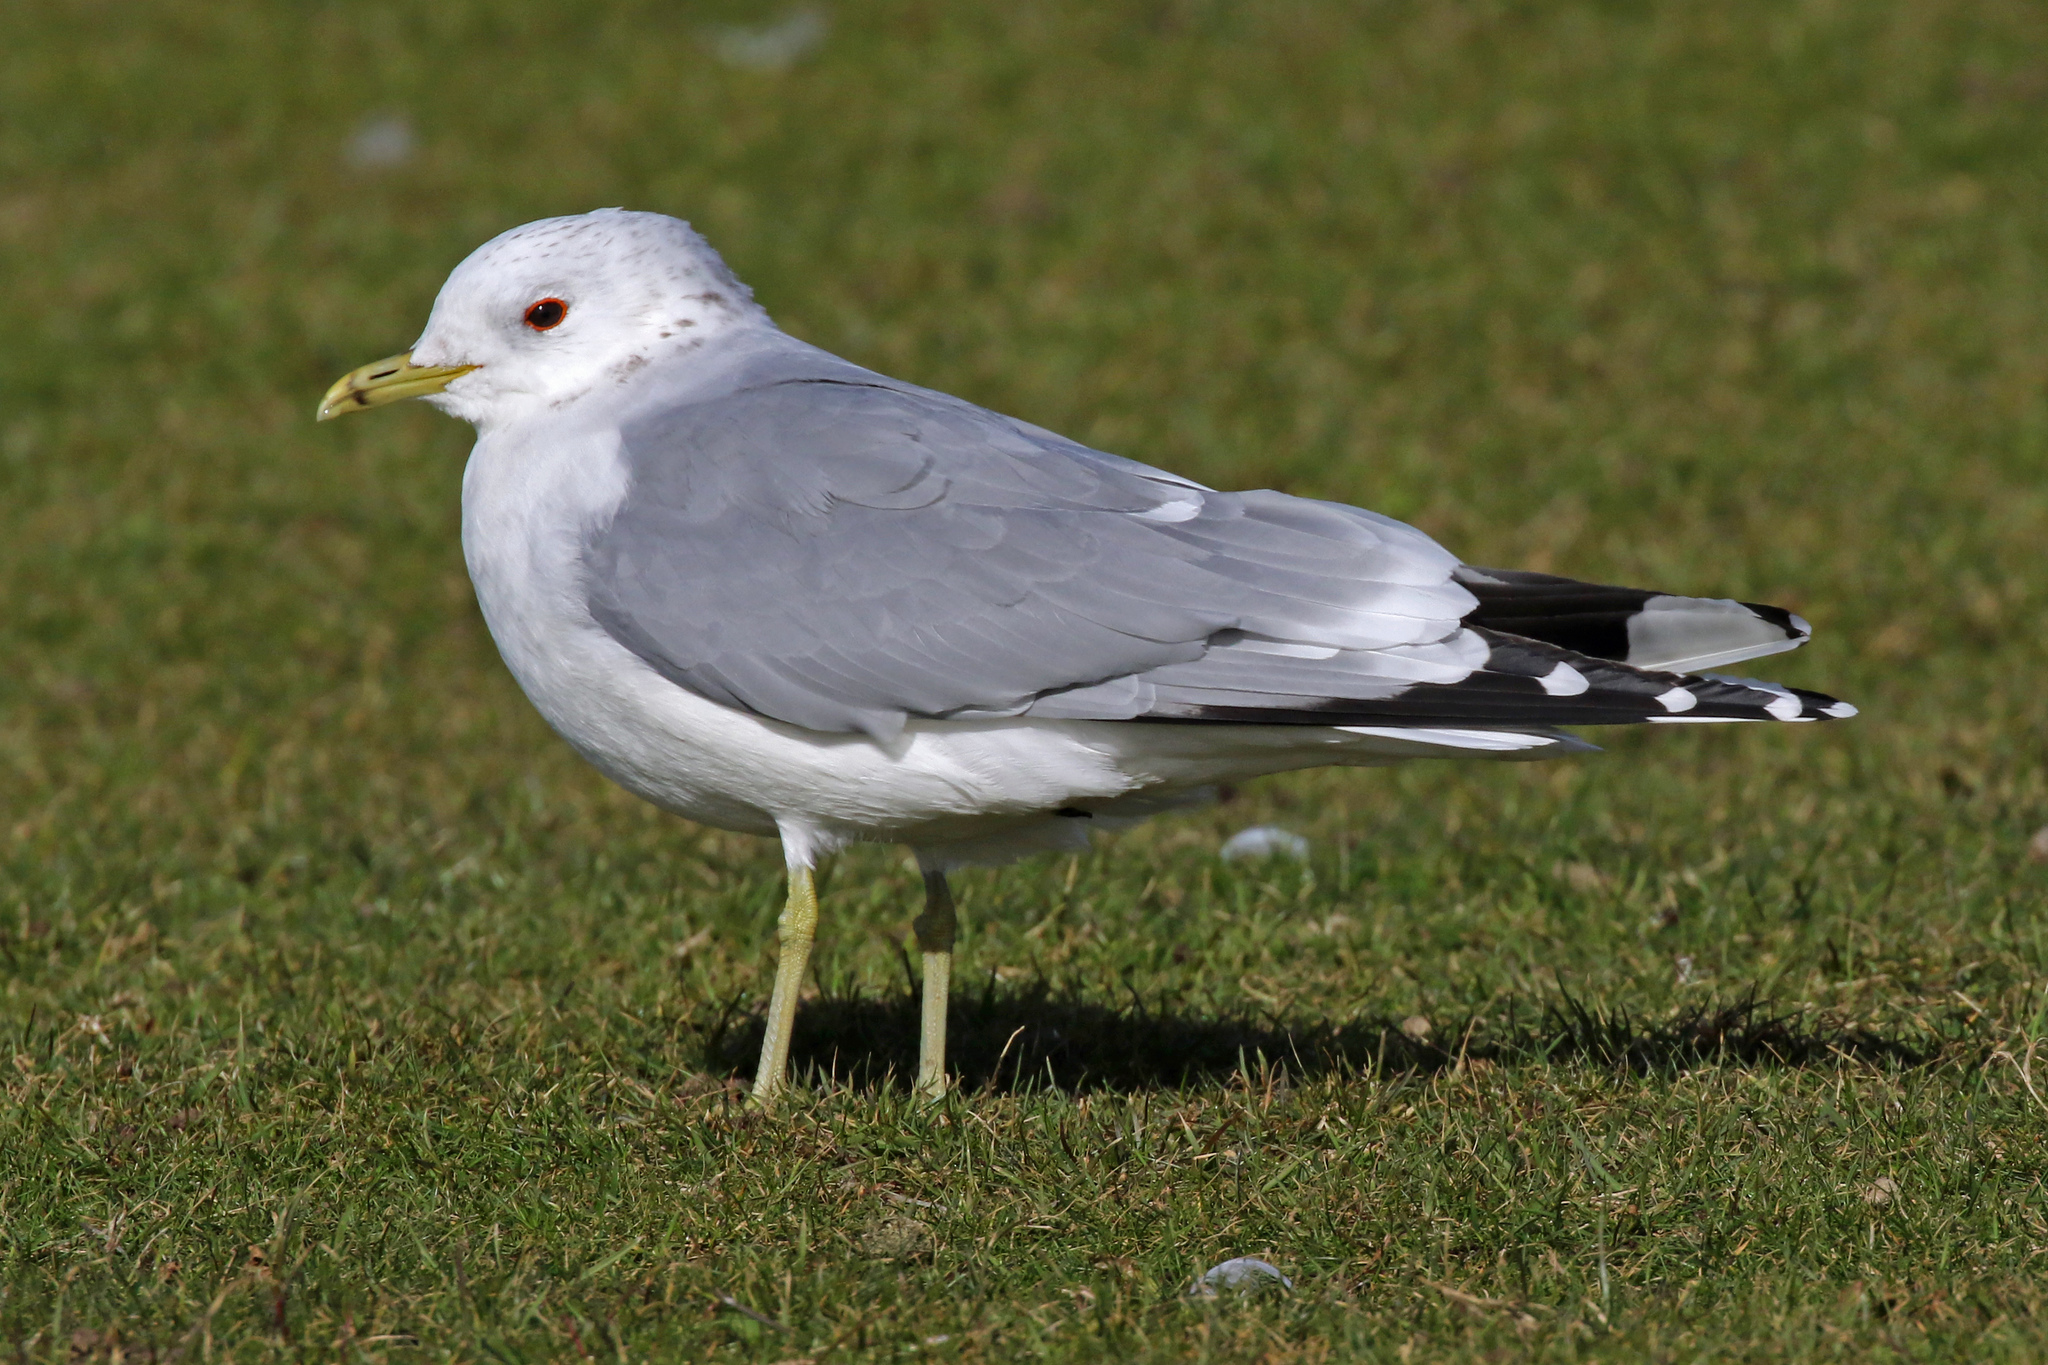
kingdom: Animalia
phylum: Chordata
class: Aves
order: Charadriiformes
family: Laridae
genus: Larus
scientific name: Larus canus
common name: Mew gull
